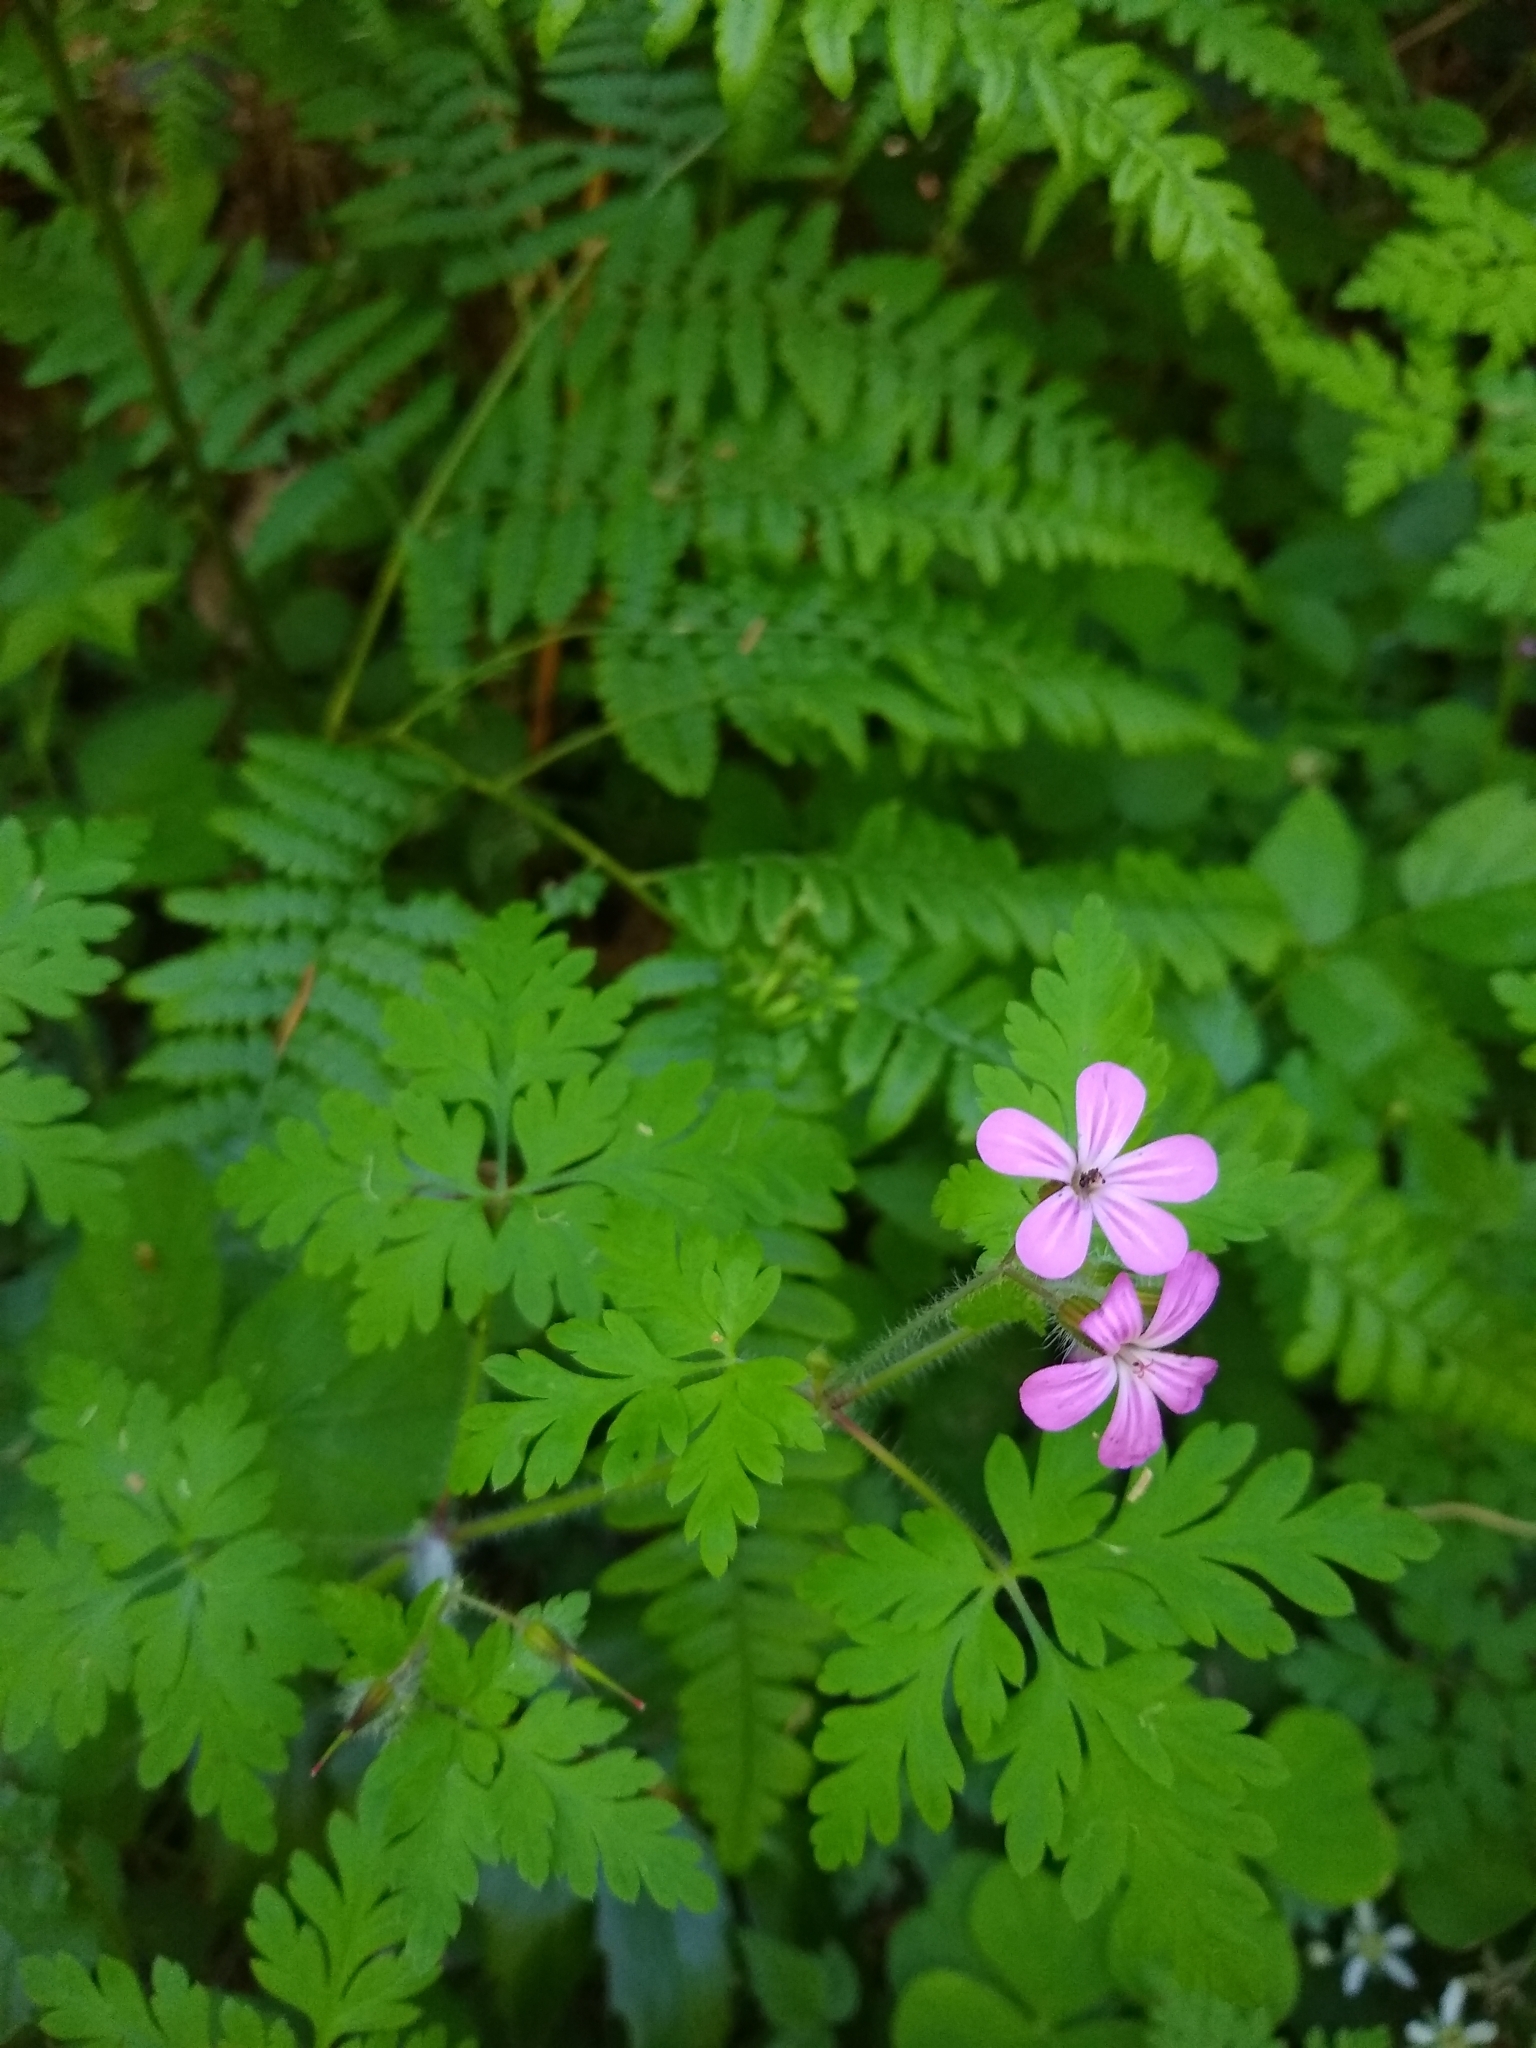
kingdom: Plantae
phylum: Tracheophyta
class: Magnoliopsida
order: Geraniales
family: Geraniaceae
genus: Geranium
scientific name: Geranium robertianum
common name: Herb-robert
